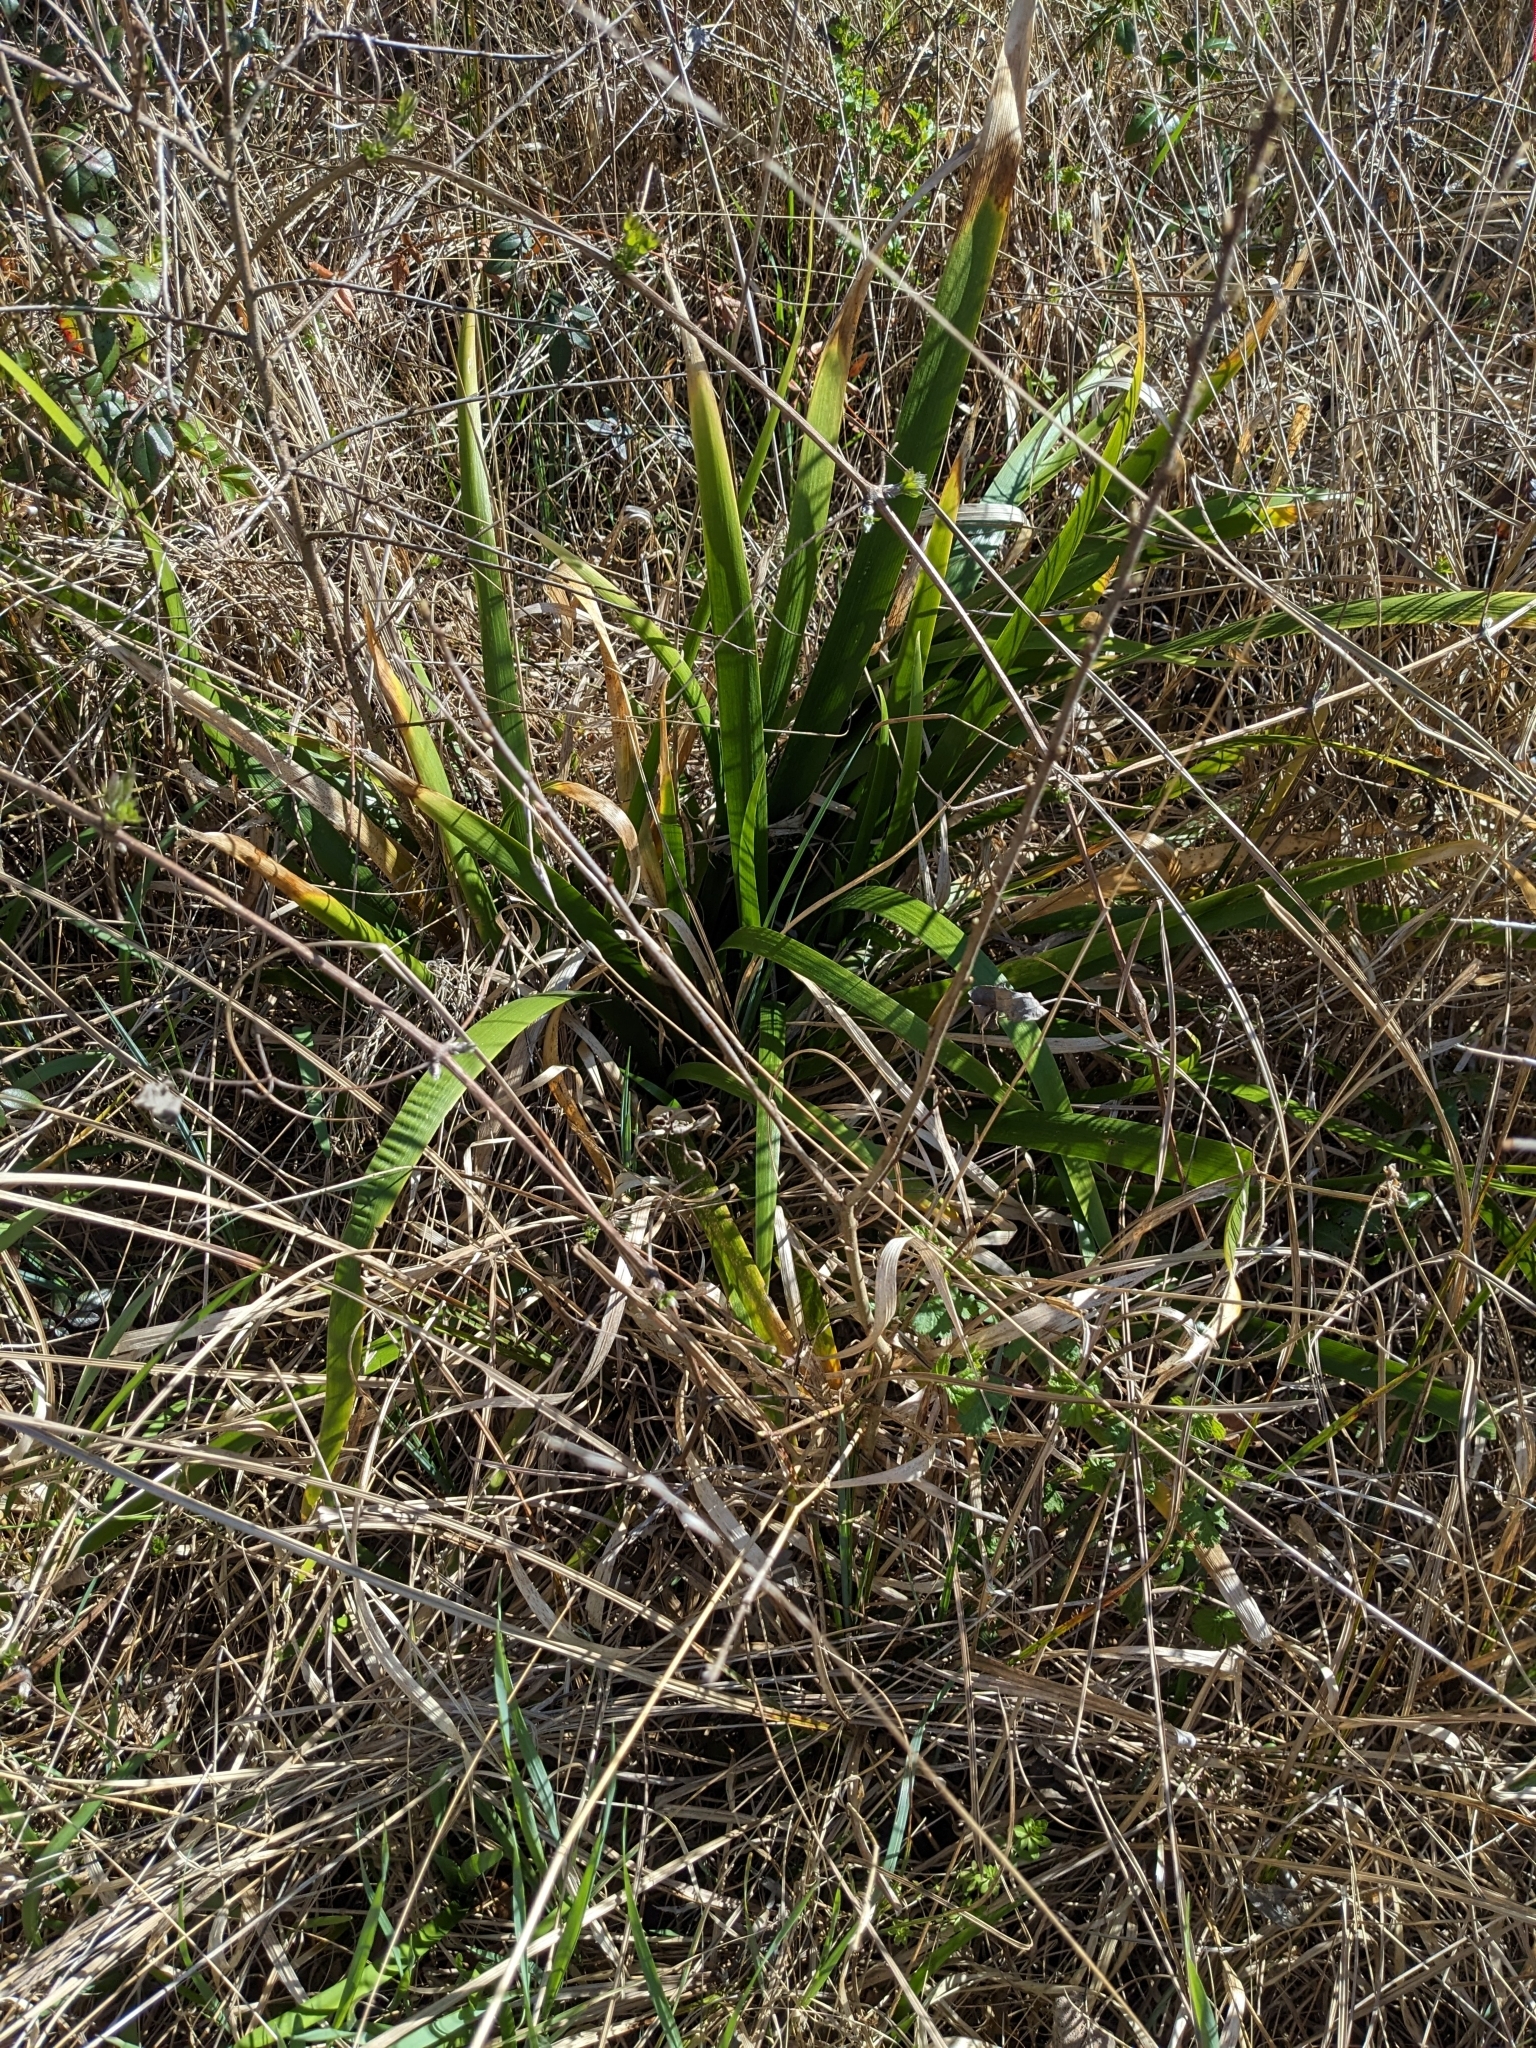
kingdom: Plantae
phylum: Tracheophyta
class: Liliopsida
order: Asparagales
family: Iridaceae
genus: Iris
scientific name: Iris foetidissima
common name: Stinking iris
